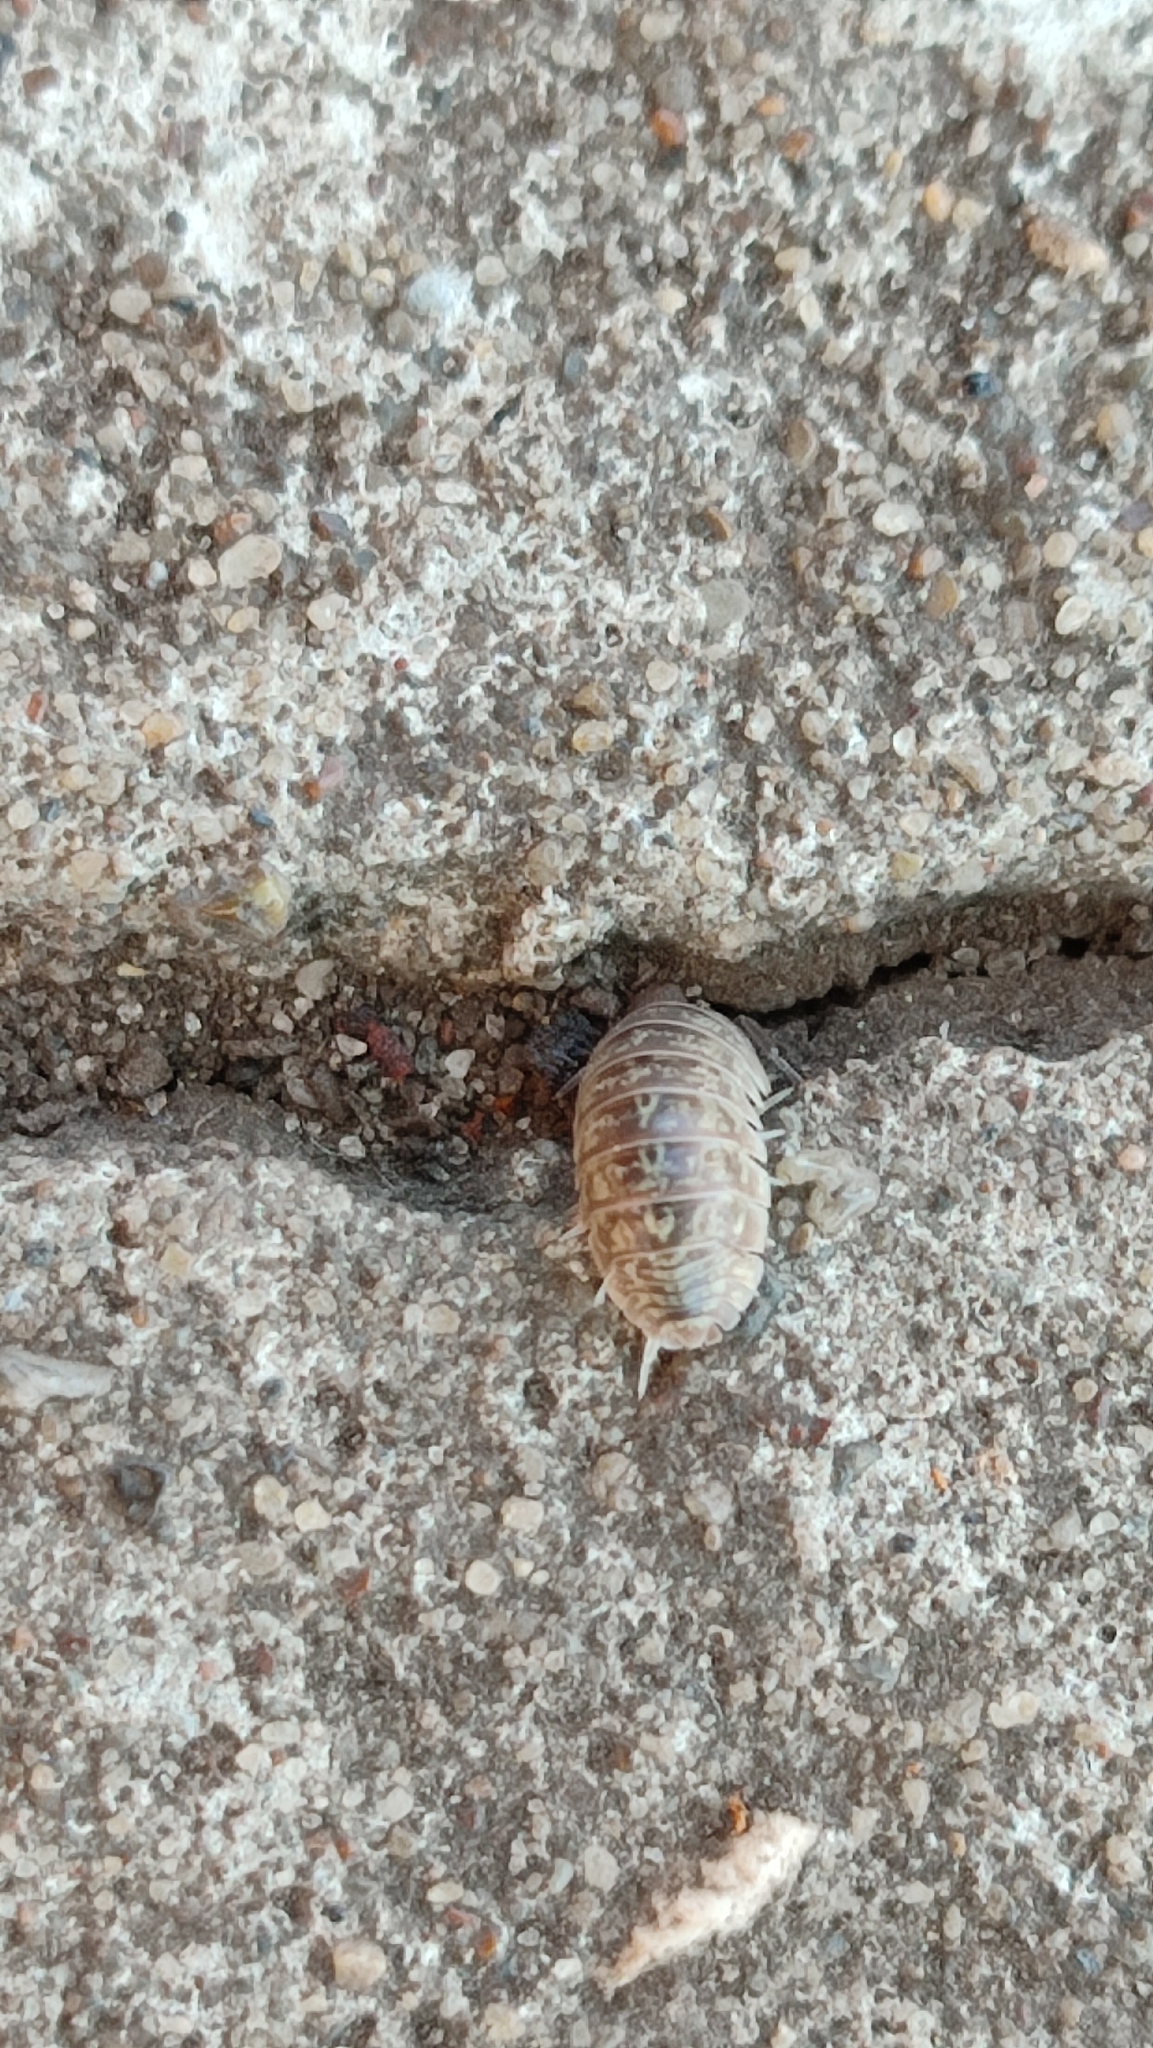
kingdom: Animalia
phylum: Arthropoda
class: Malacostraca
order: Isopoda
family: Armadillidiidae
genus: Armadillidium
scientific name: Armadillidium versicolor
